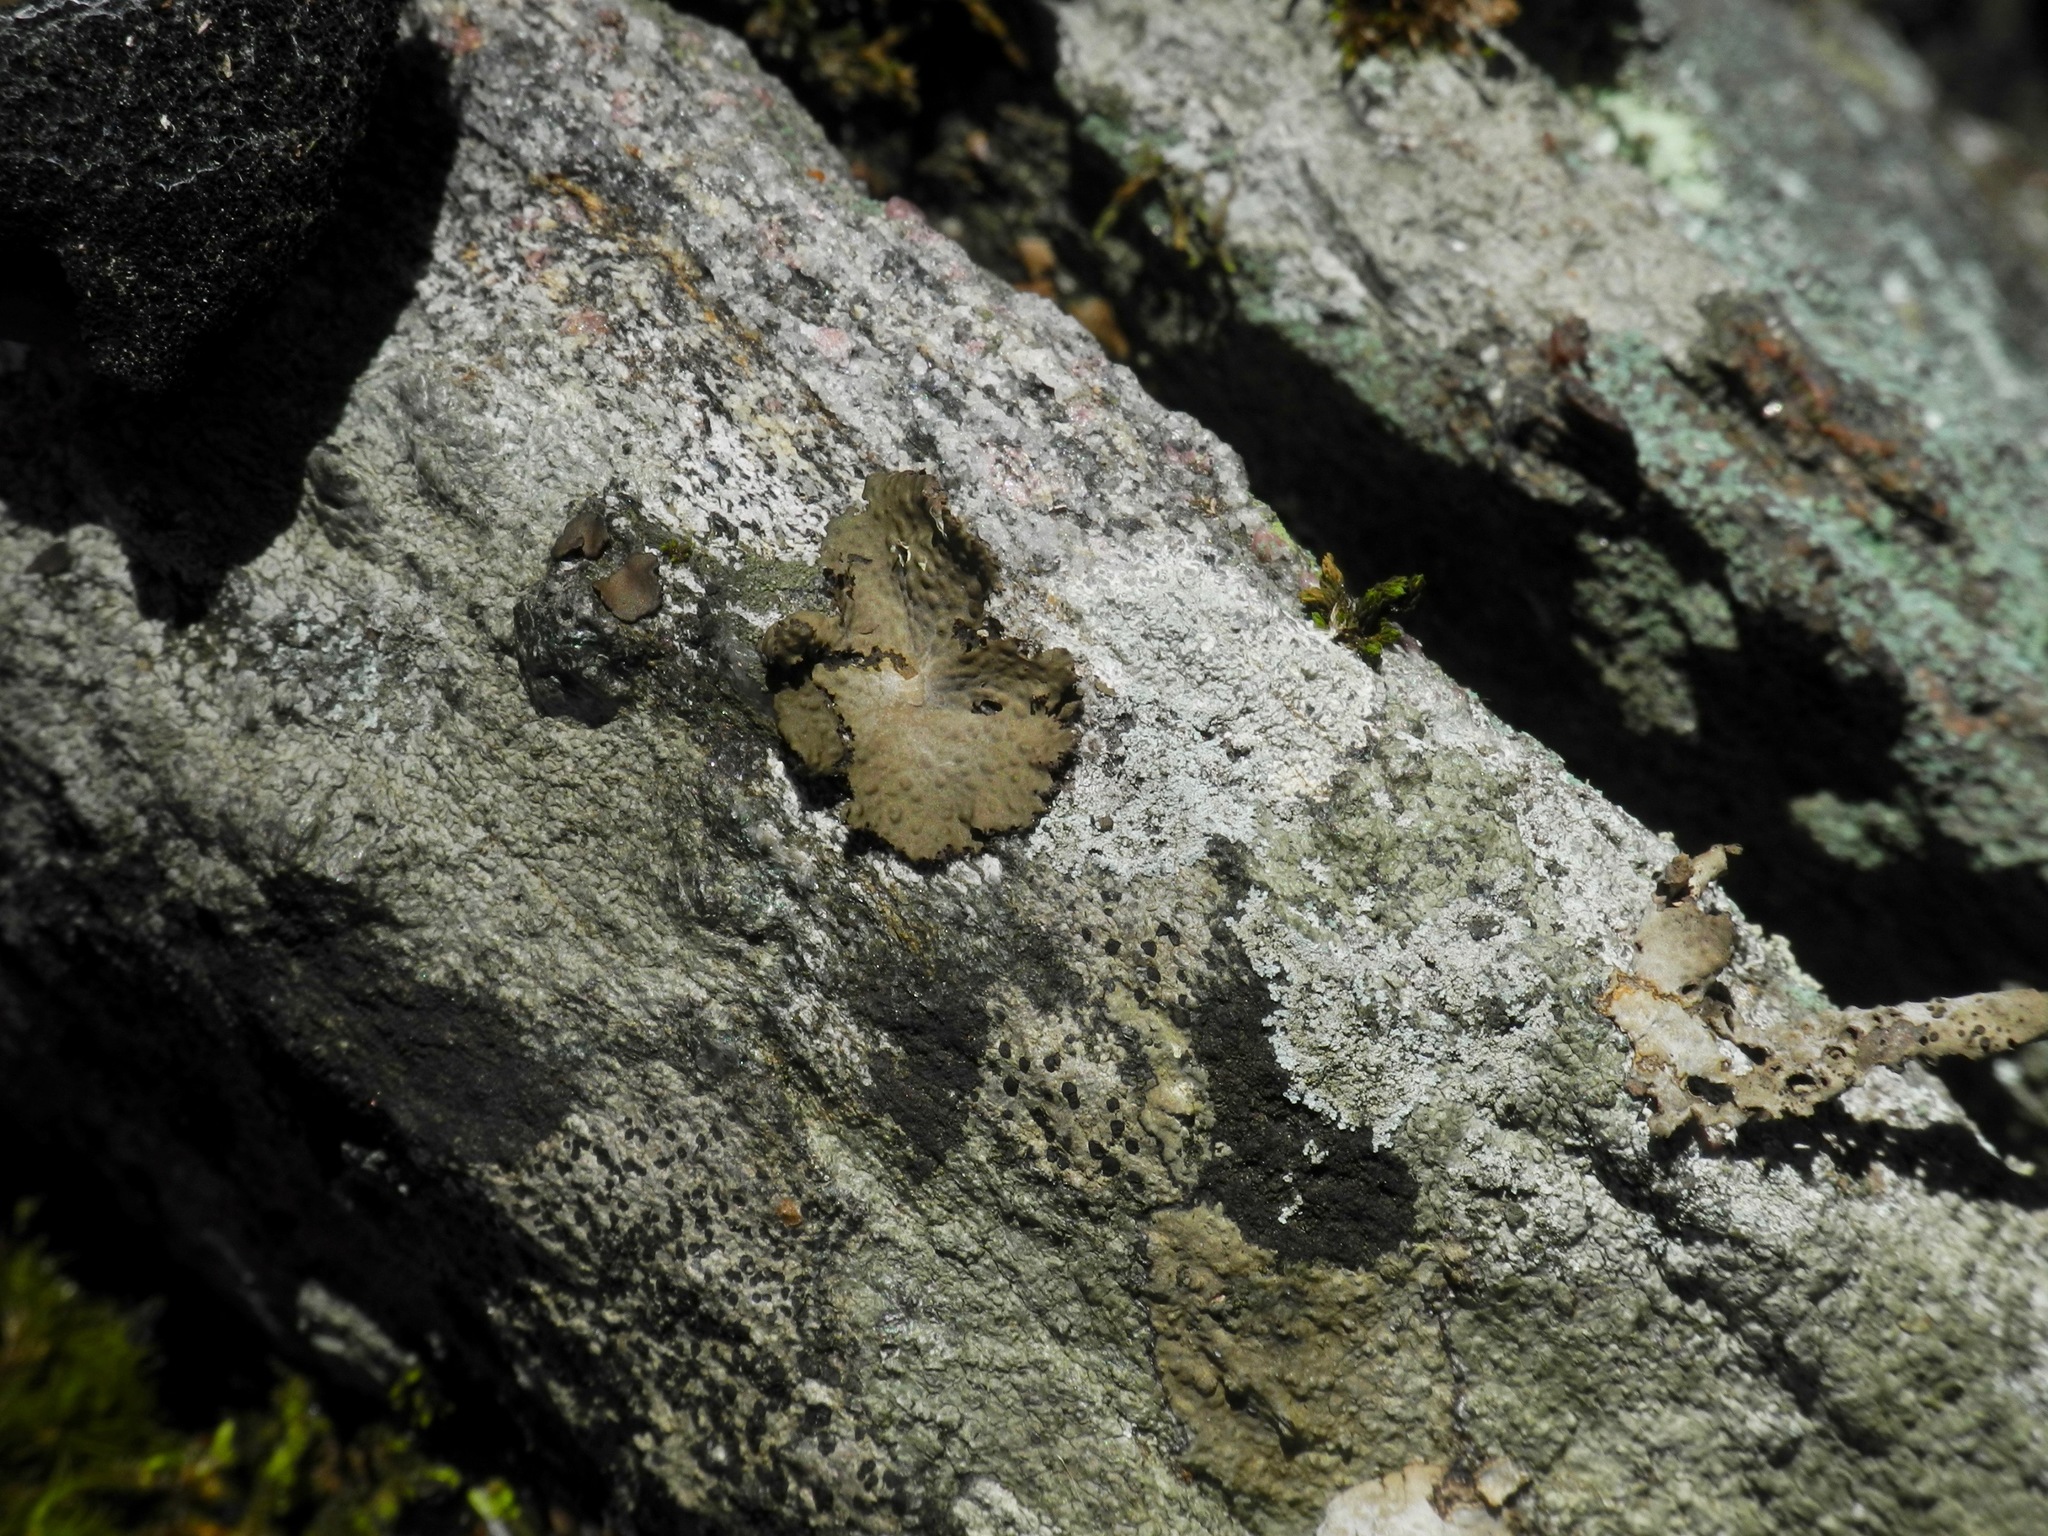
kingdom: Fungi
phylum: Ascomycota
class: Lecanoromycetes
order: Umbilicariales
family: Umbilicariaceae
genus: Lasallia
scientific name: Lasallia papulosa
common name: Common toadskin lichen
